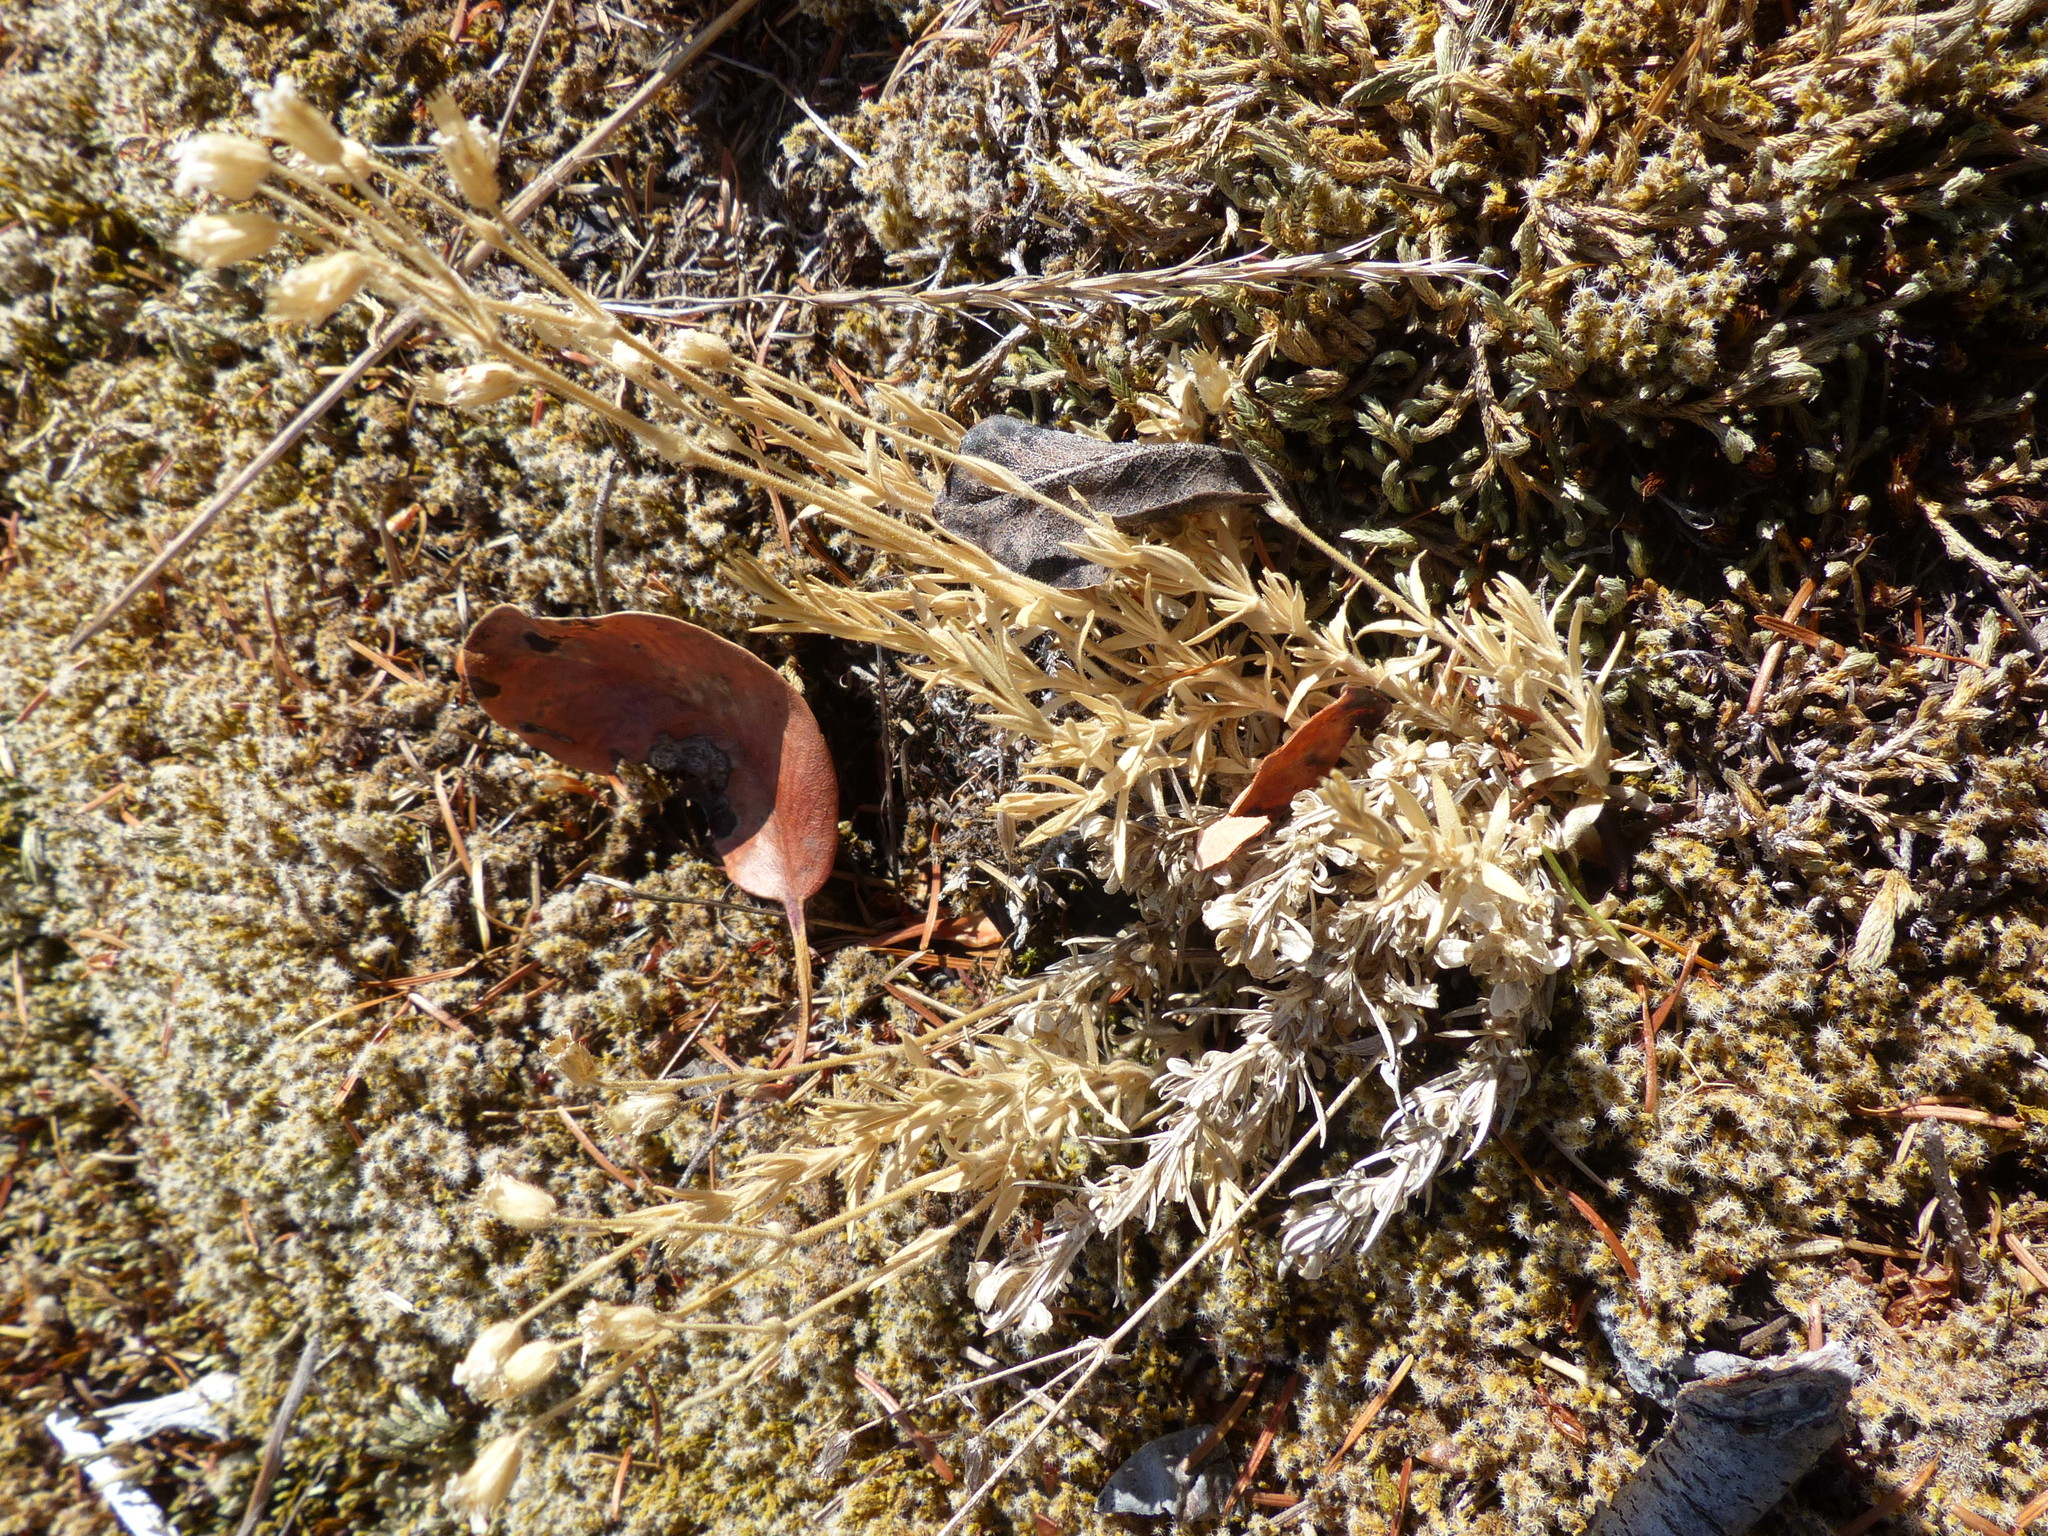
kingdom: Plantae
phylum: Tracheophyta
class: Magnoliopsida
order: Caryophyllales
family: Caryophyllaceae
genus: Cerastium
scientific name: Cerastium arvense
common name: Field mouse-ear
